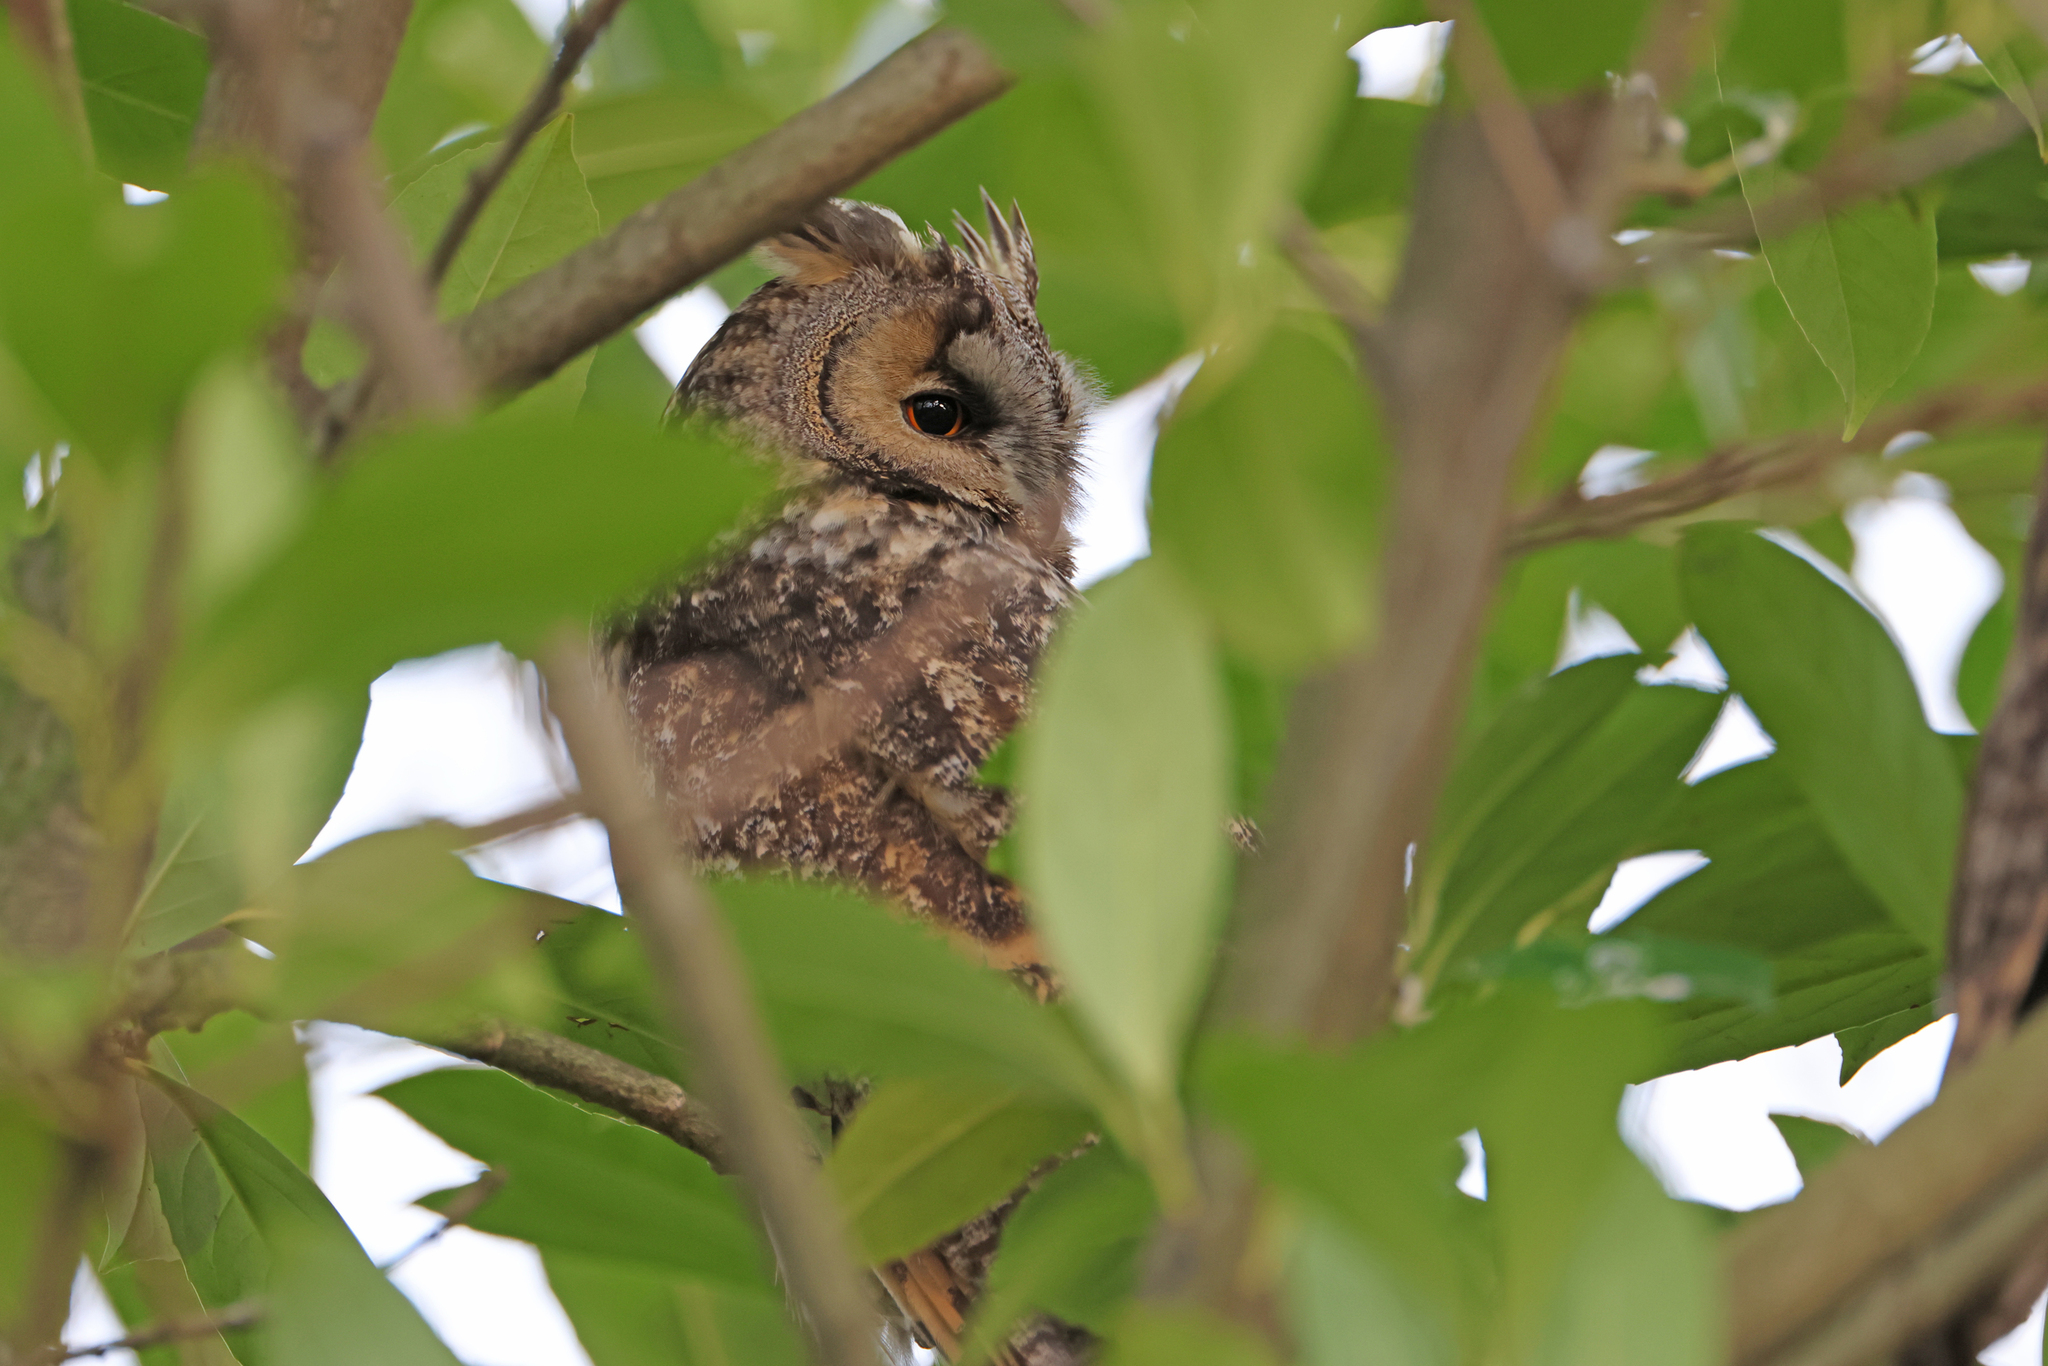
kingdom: Animalia
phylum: Chordata
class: Aves
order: Strigiformes
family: Strigidae
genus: Asio
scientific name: Asio otus
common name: Long-eared owl
